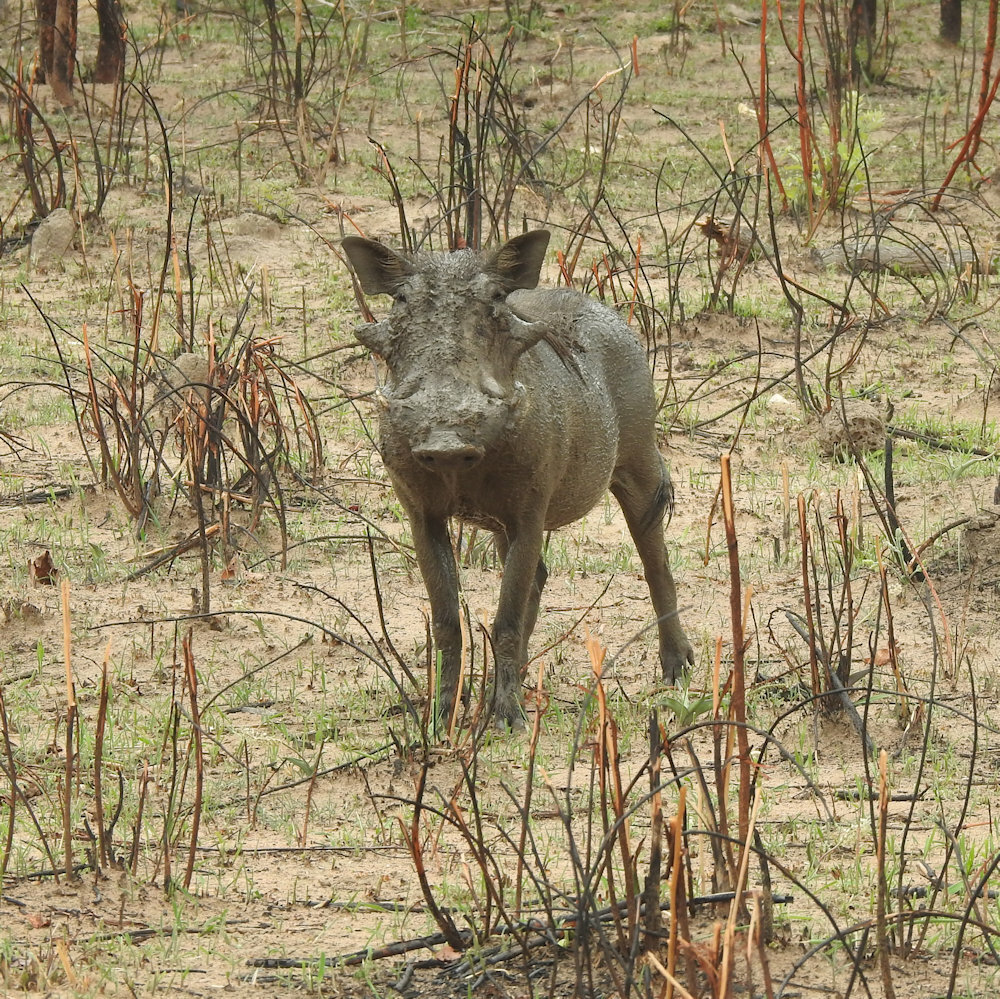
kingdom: Animalia
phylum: Chordata
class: Mammalia
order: Artiodactyla
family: Suidae
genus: Phacochoerus
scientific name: Phacochoerus africanus
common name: Common warthog
